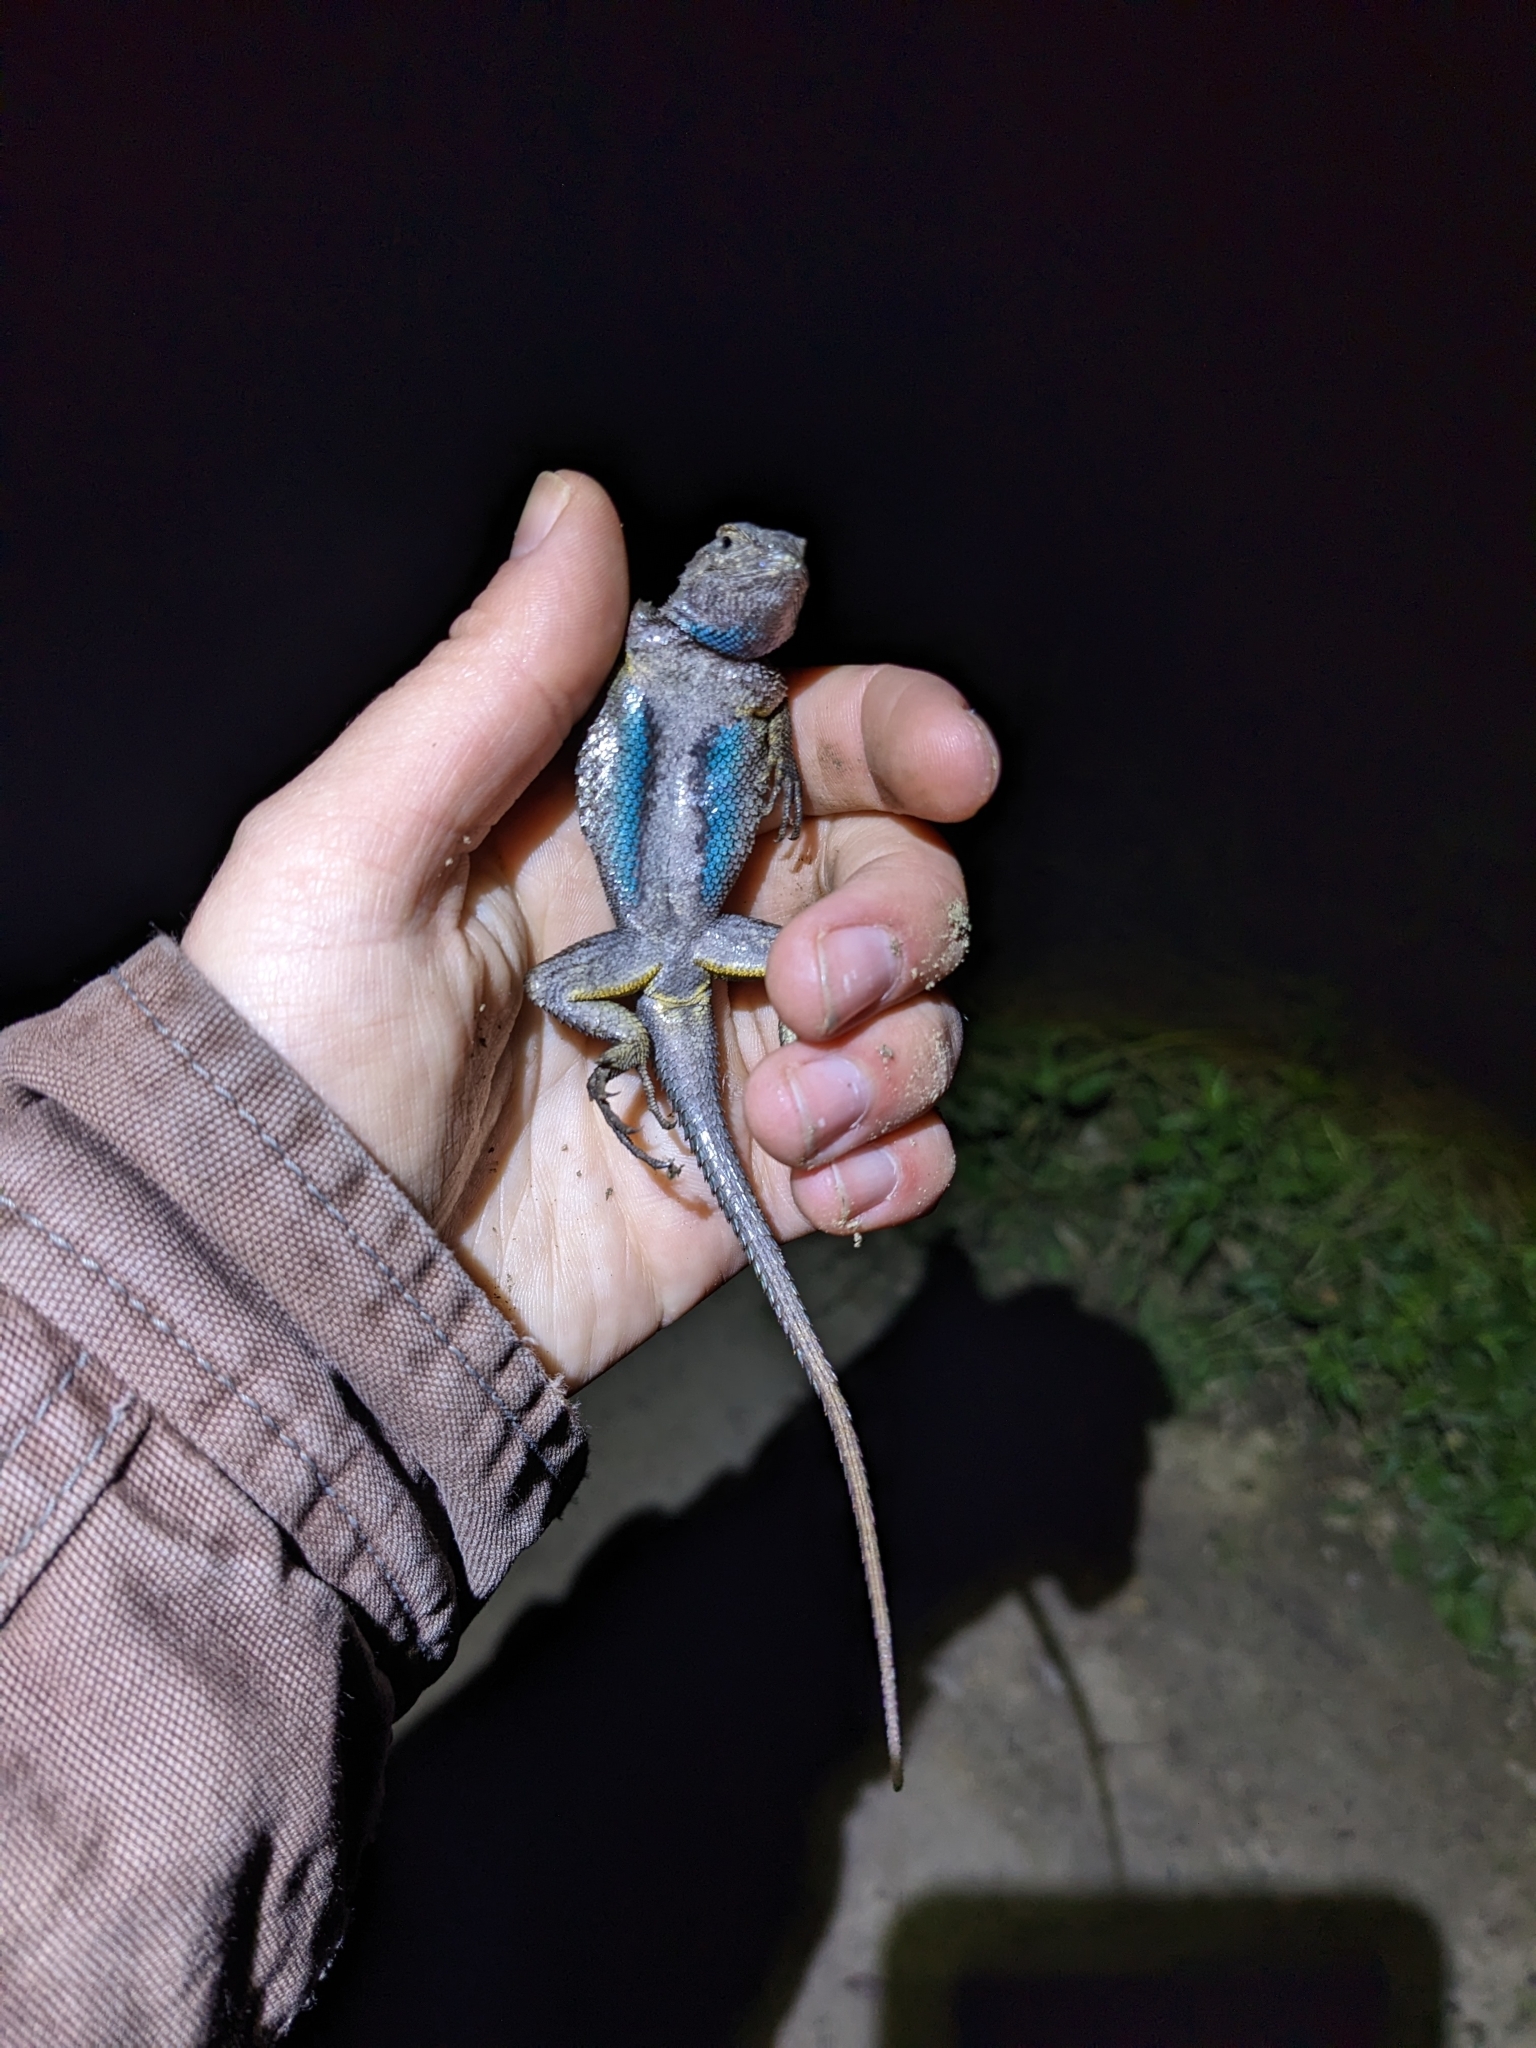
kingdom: Animalia
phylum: Chordata
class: Squamata
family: Phrynosomatidae
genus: Sceloporus
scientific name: Sceloporus occidentalis
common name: Western fence lizard
